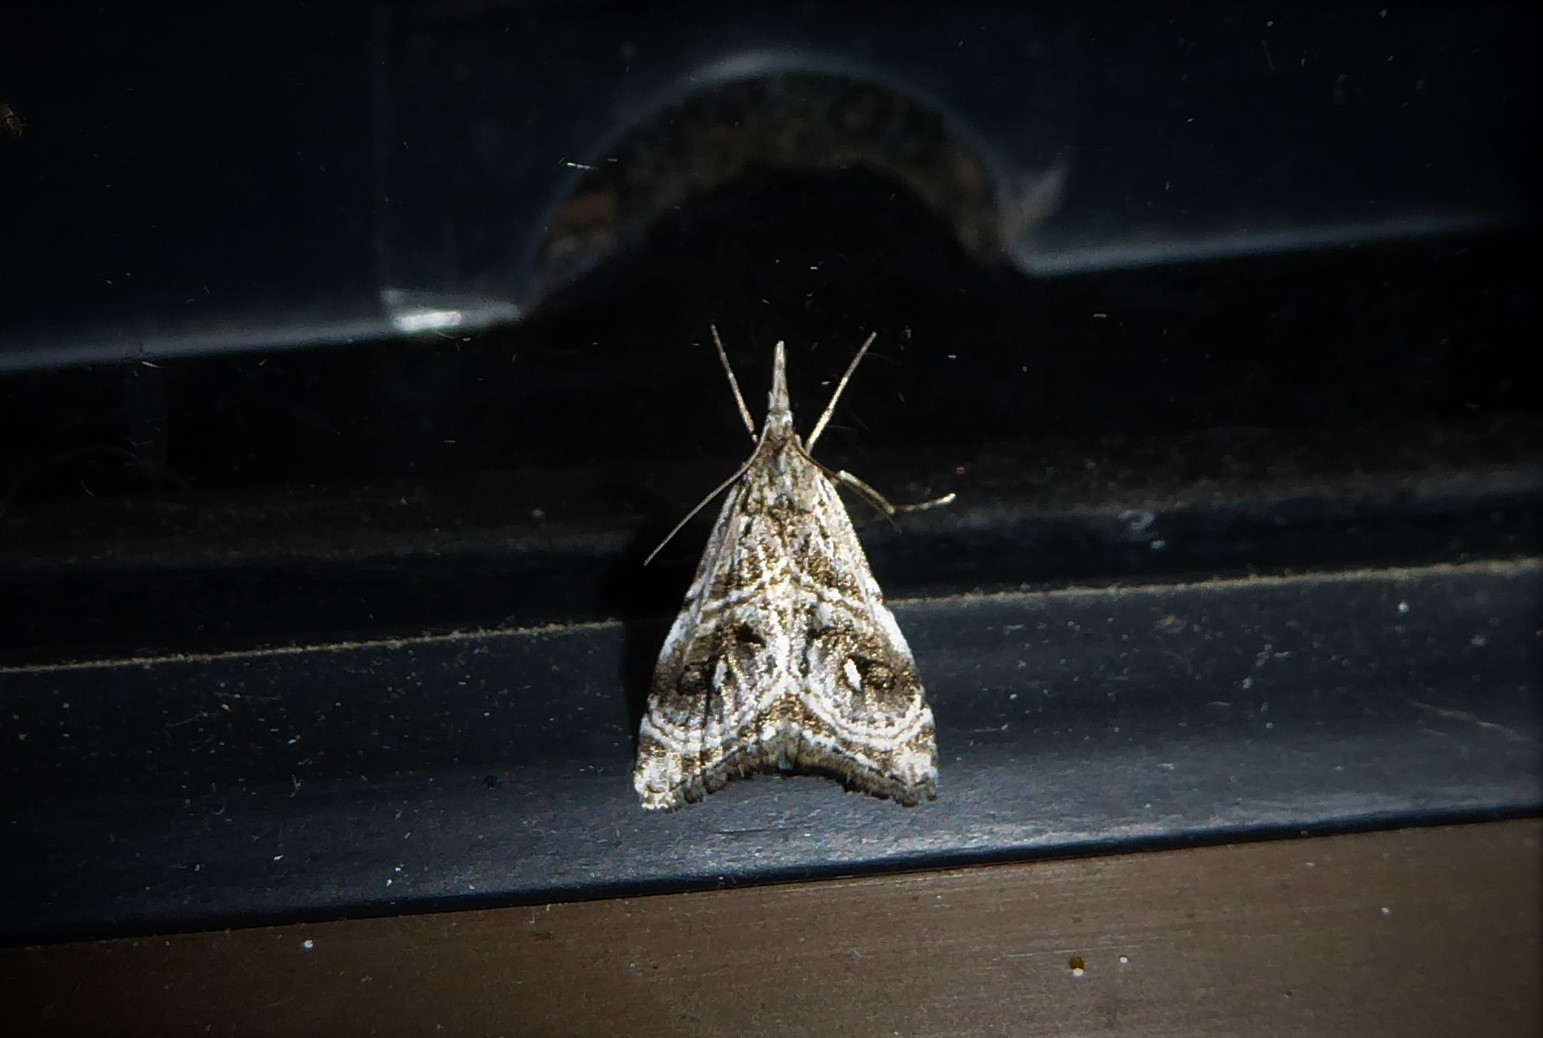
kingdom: Animalia
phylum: Arthropoda
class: Insecta
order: Lepidoptera
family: Crambidae
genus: Gadira
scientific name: Gadira acerella
